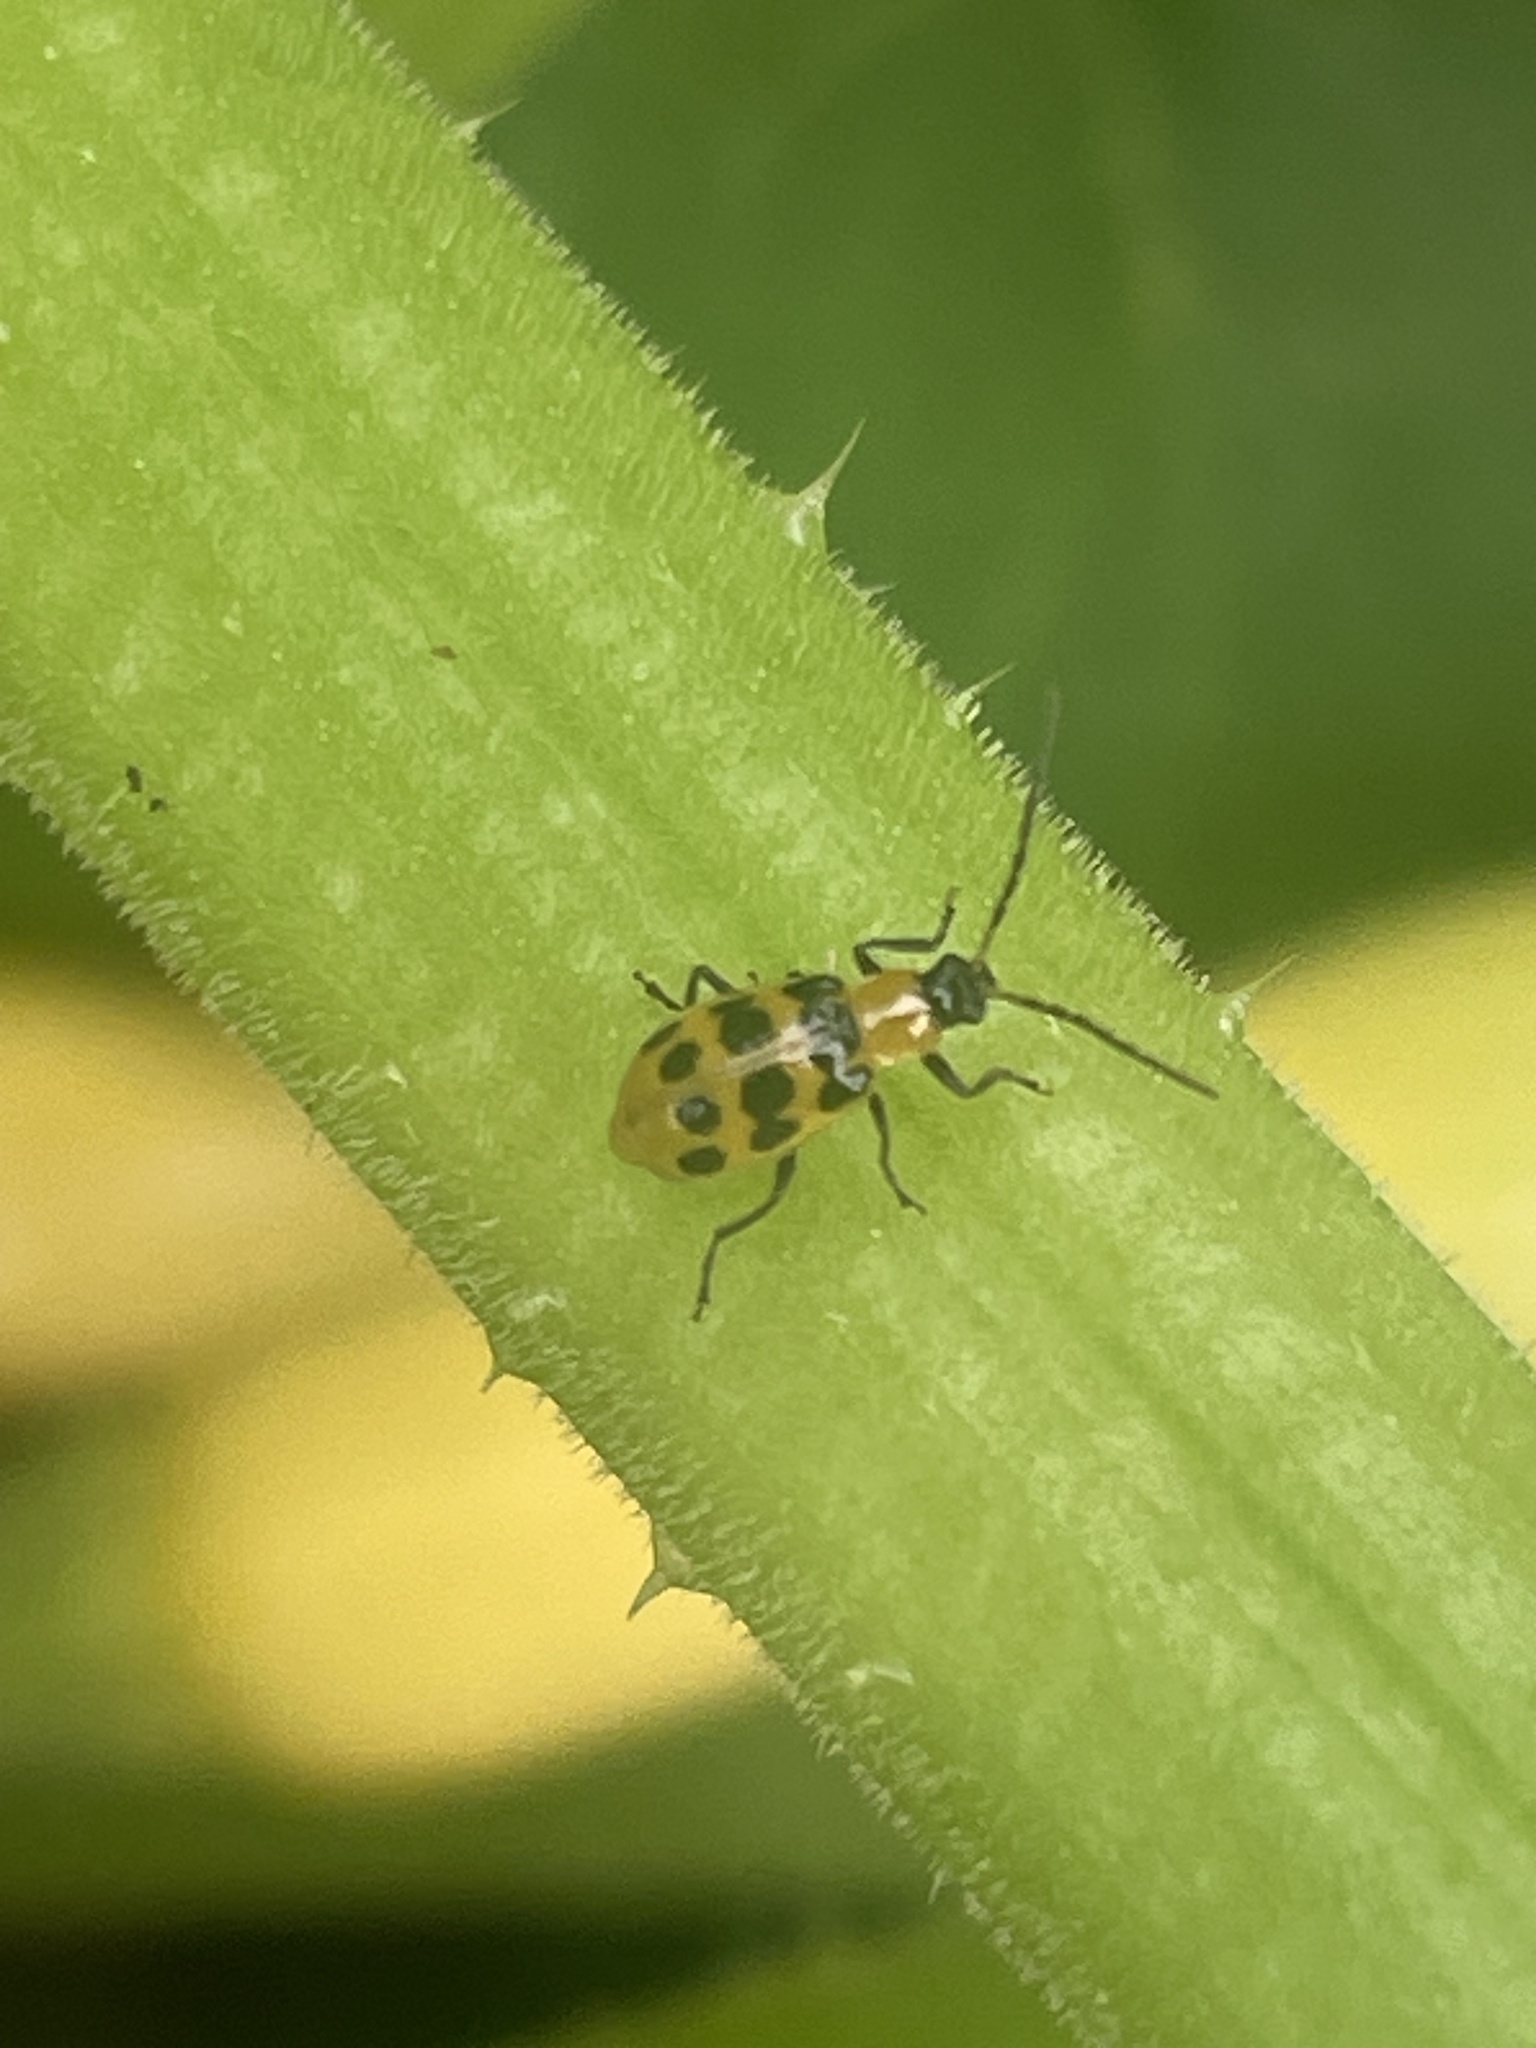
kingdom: Animalia
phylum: Arthropoda
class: Insecta
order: Coleoptera
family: Chrysomelidae
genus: Diabrotica
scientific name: Diabrotica undecimpunctata
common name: Spotted cucumber beetle
